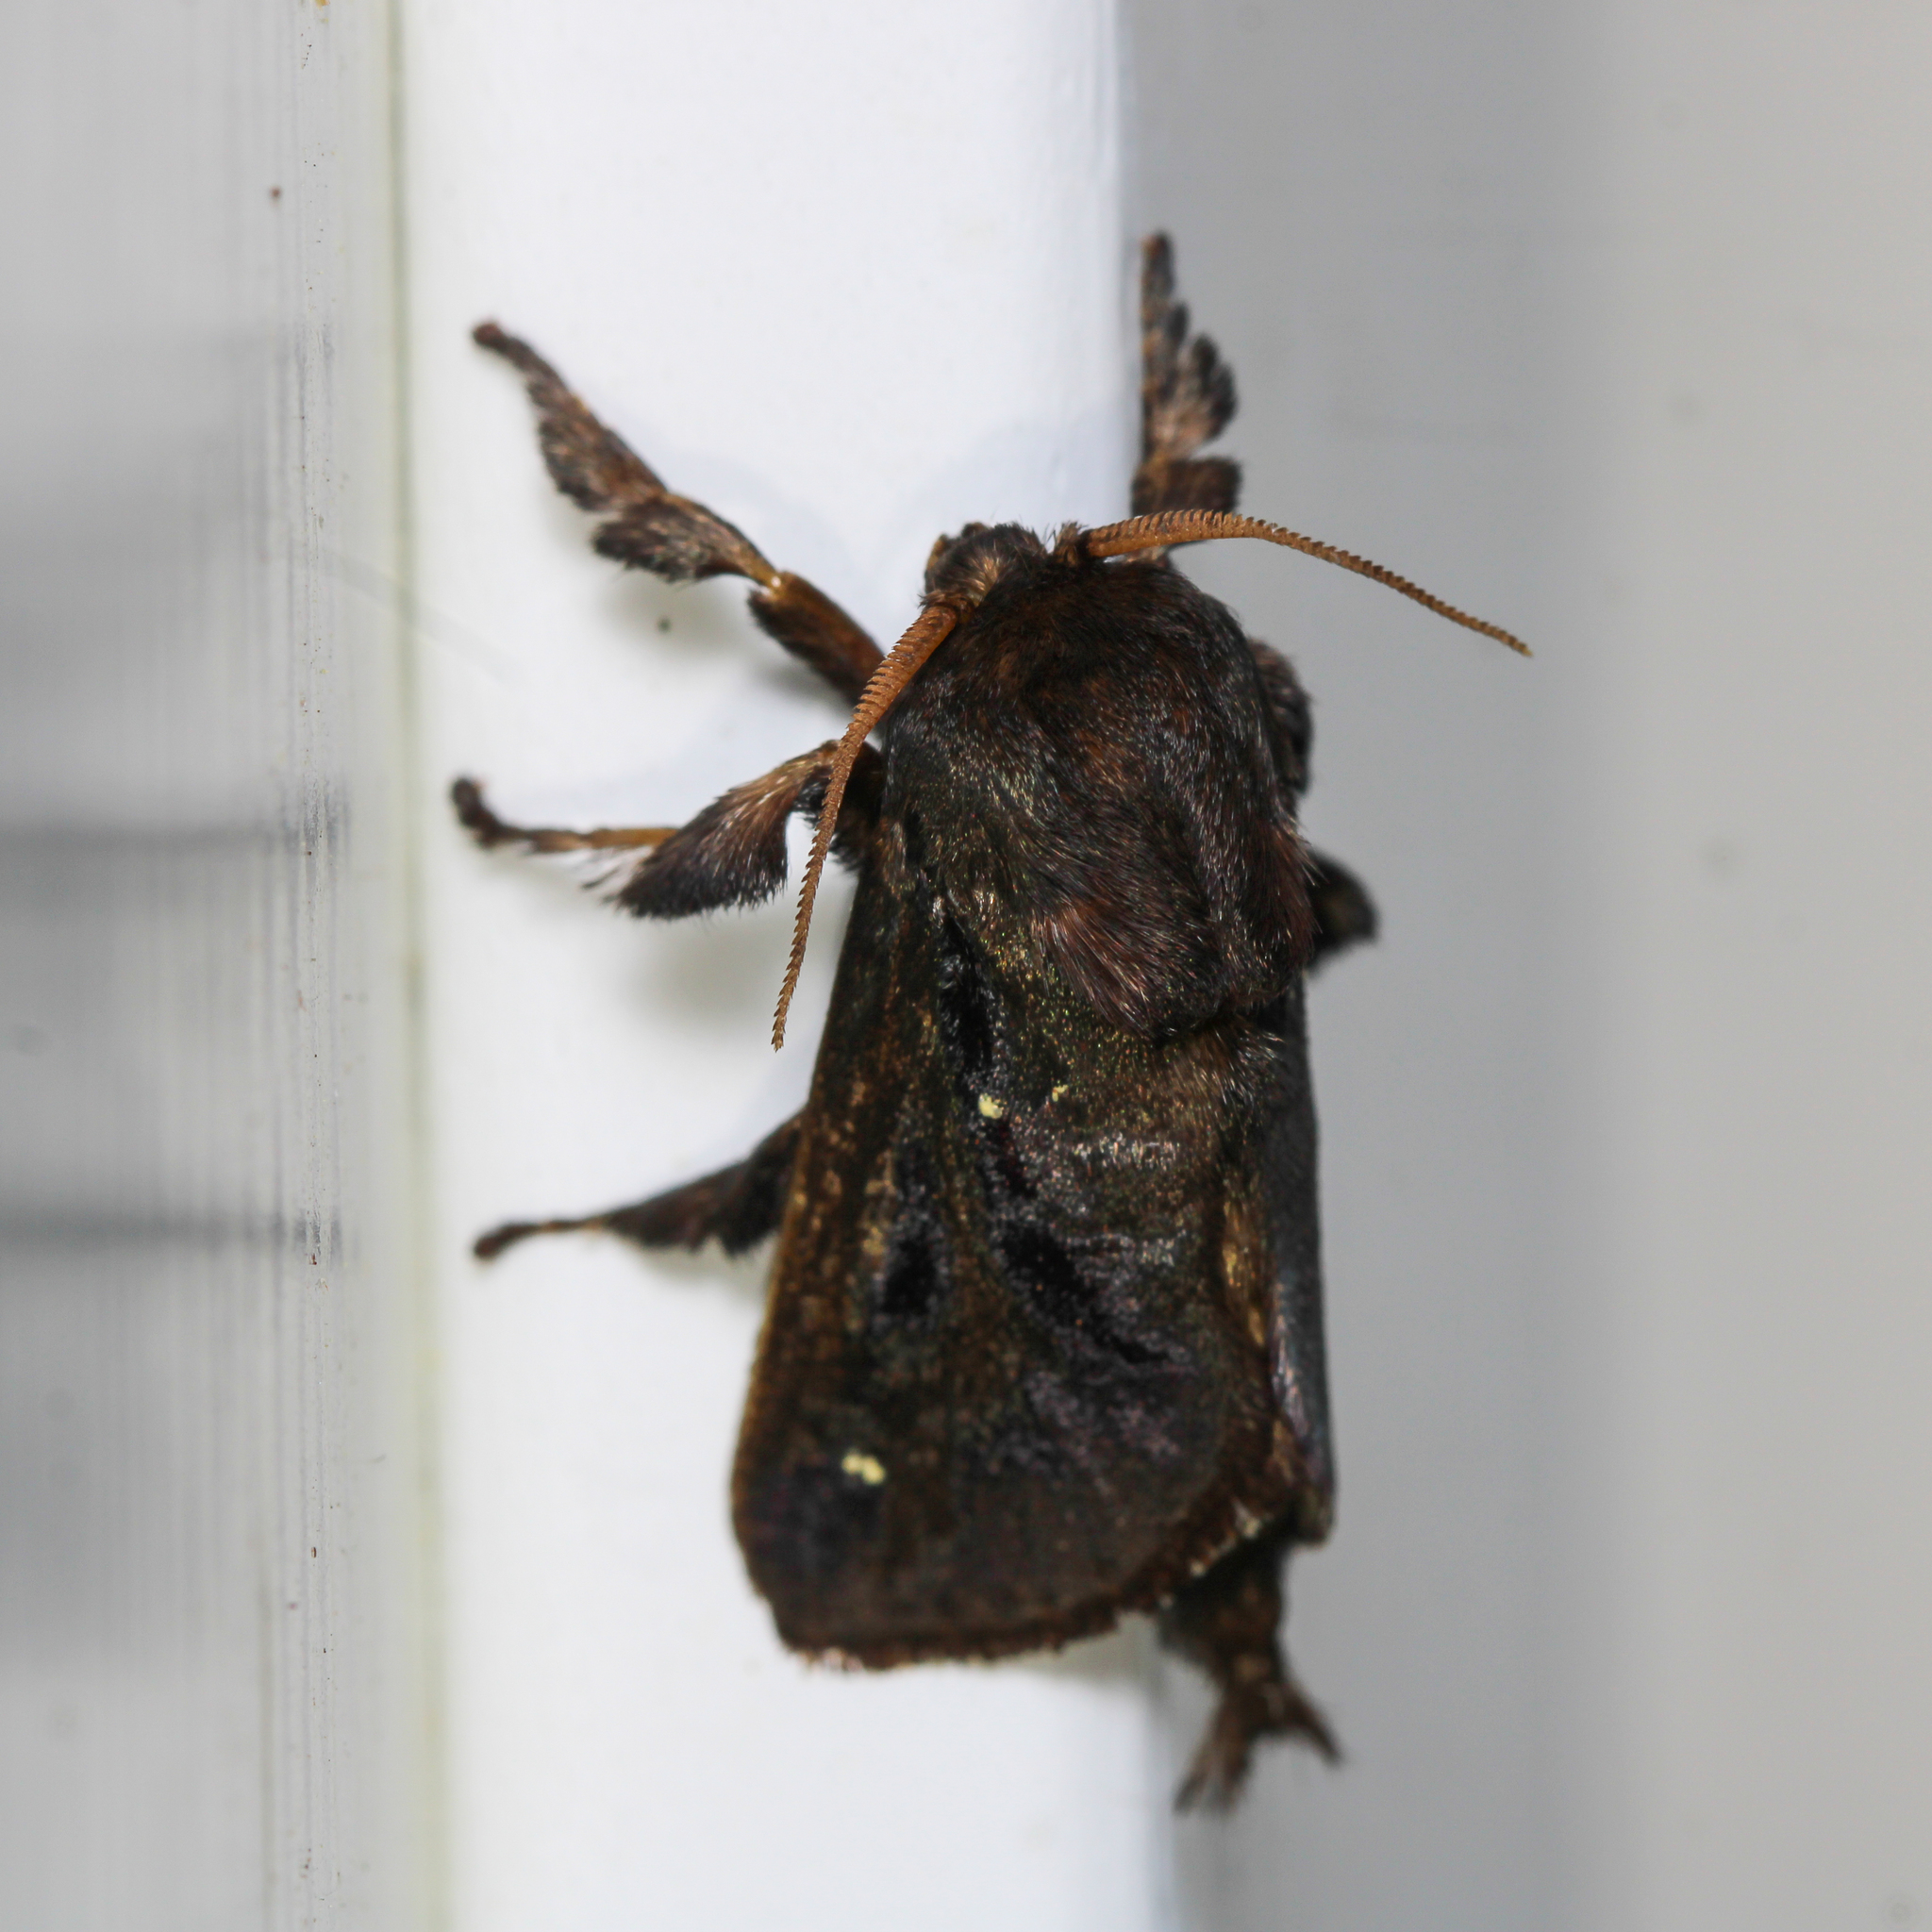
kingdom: Animalia
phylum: Arthropoda
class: Insecta
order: Lepidoptera
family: Limacodidae
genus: Acharia
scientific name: Acharia stimulea
